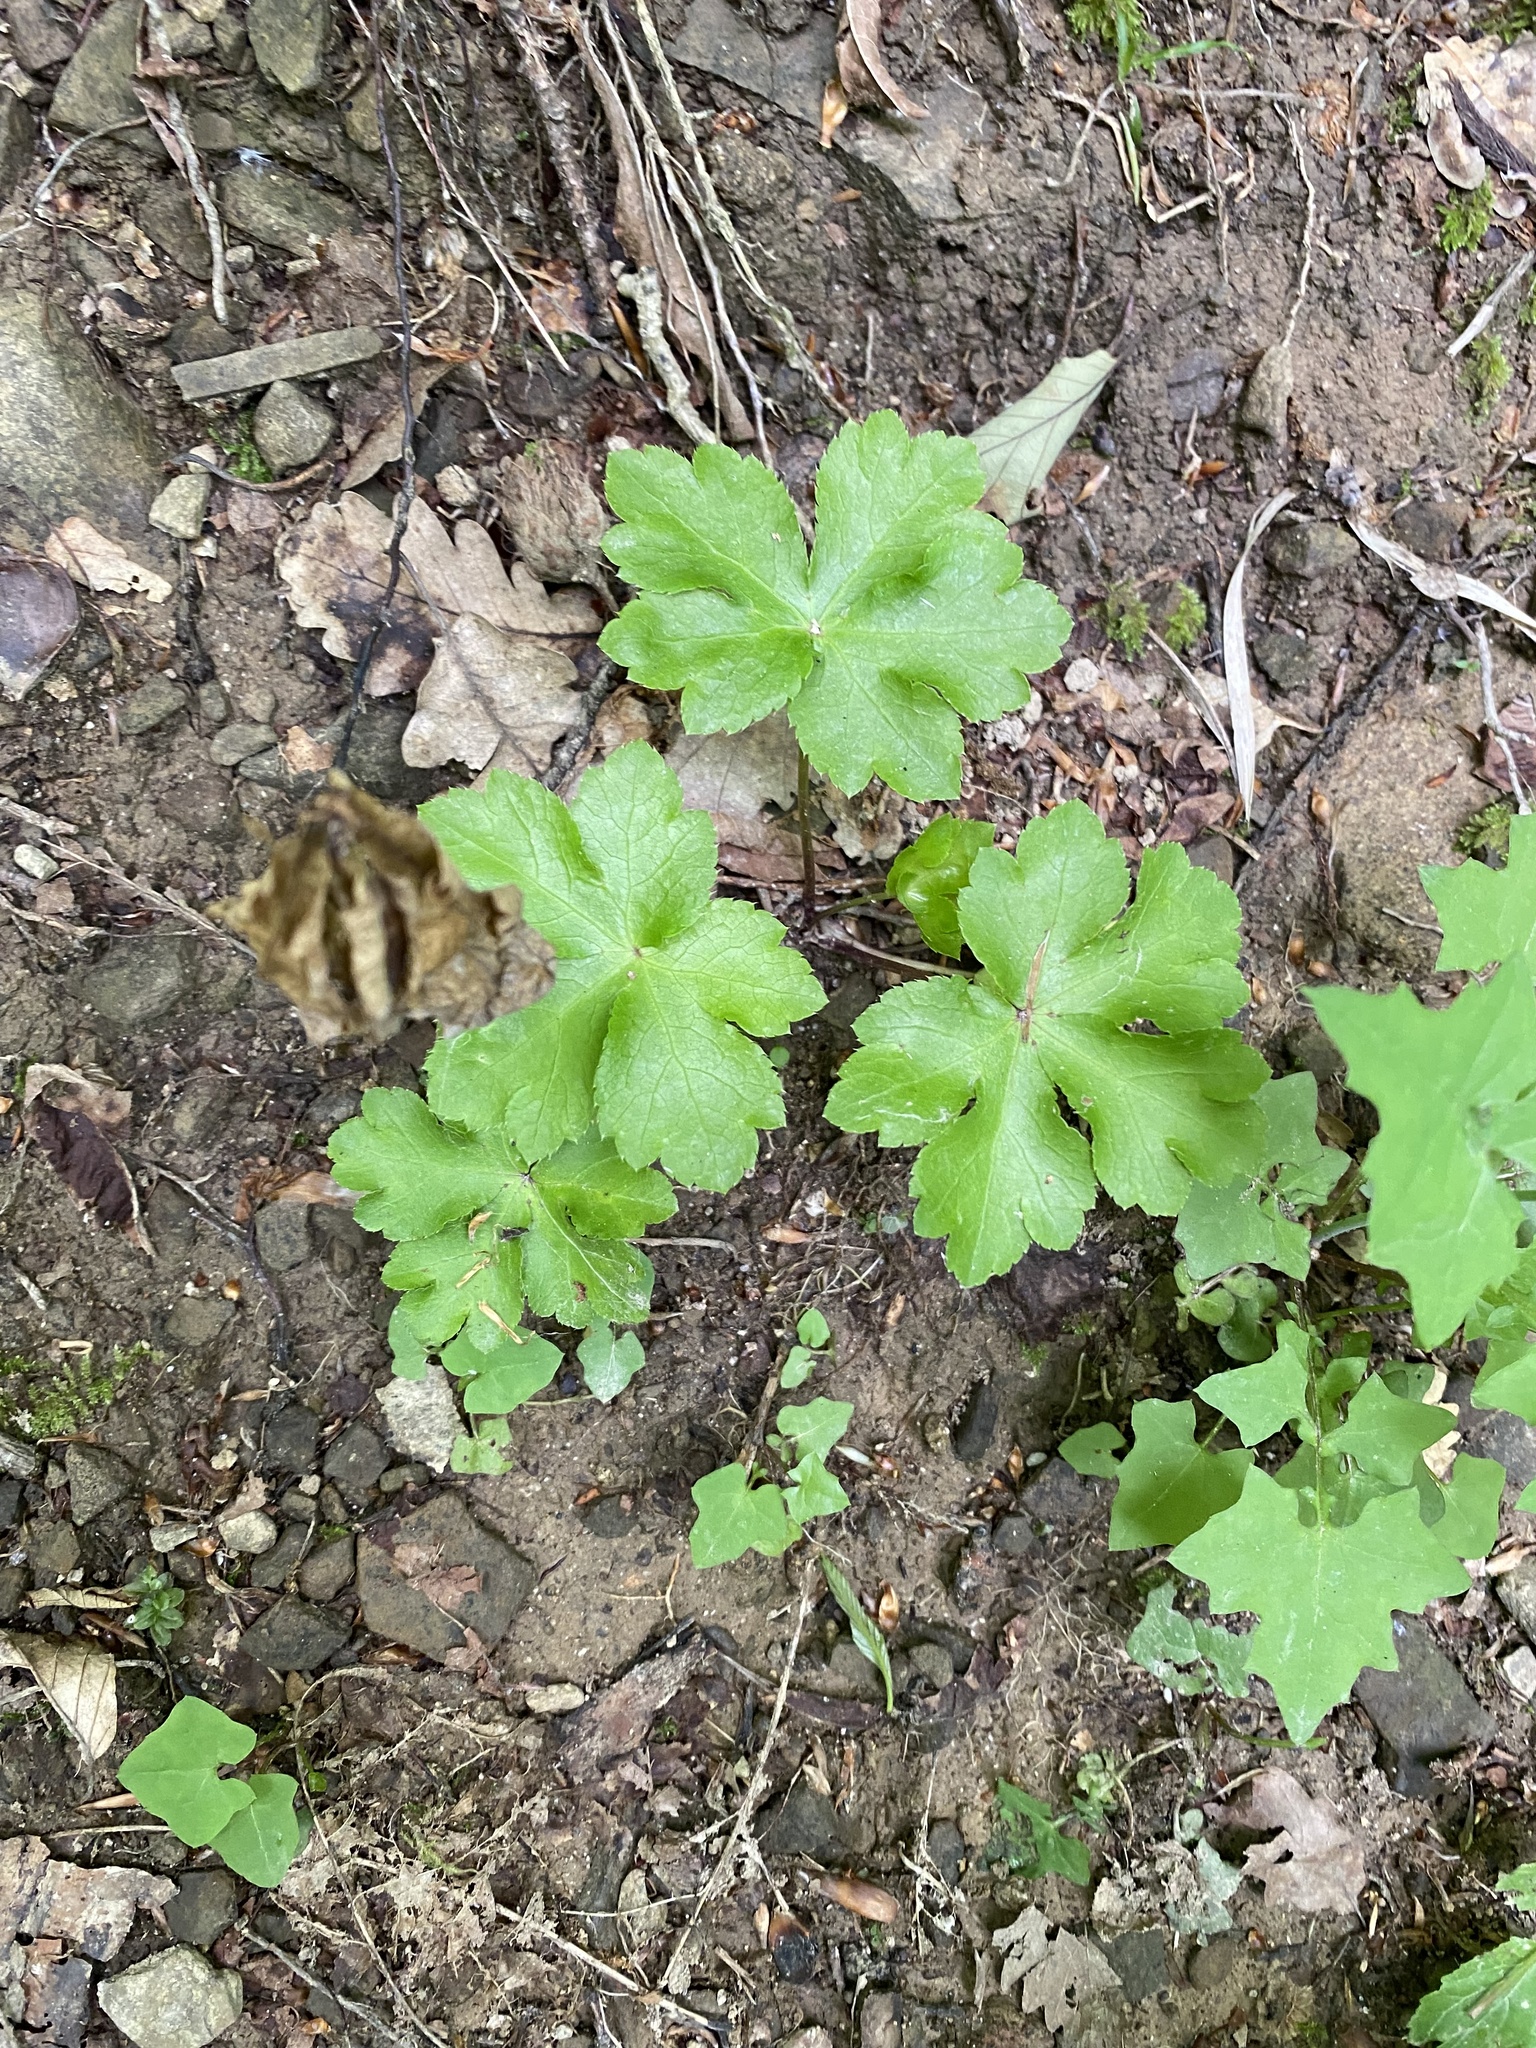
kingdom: Plantae
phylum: Tracheophyta
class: Magnoliopsida
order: Apiales
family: Apiaceae
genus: Sanicula
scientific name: Sanicula europaea
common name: Sanicle
